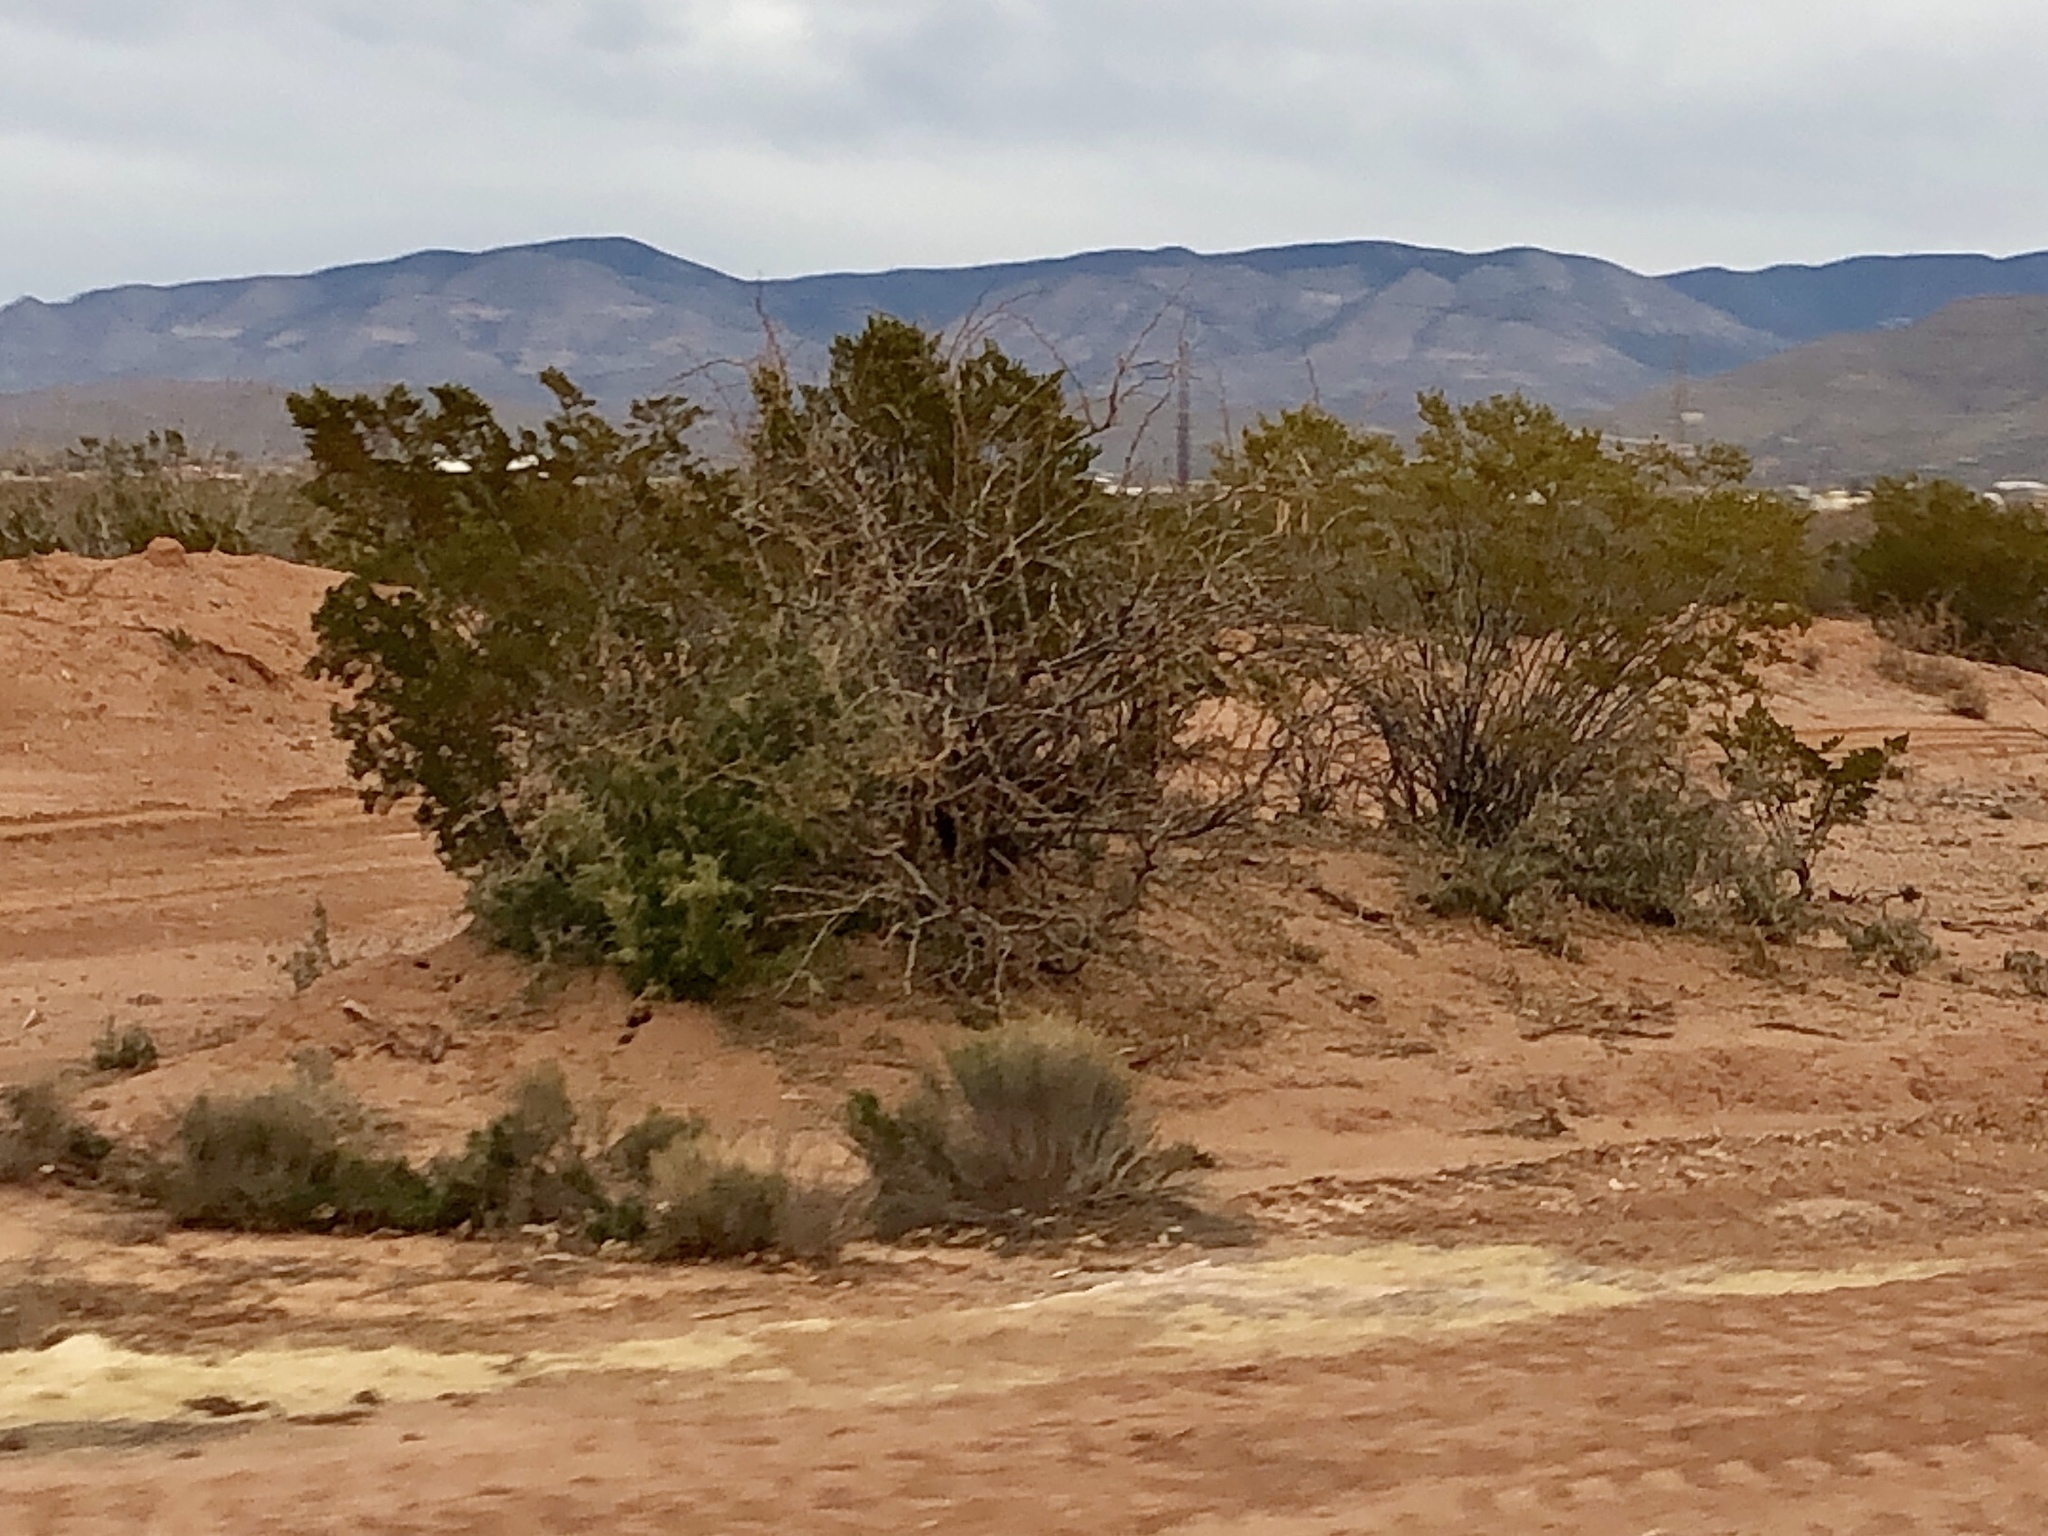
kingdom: Plantae
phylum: Tracheophyta
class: Magnoliopsida
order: Zygophyllales
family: Zygophyllaceae
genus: Larrea
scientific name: Larrea tridentata
